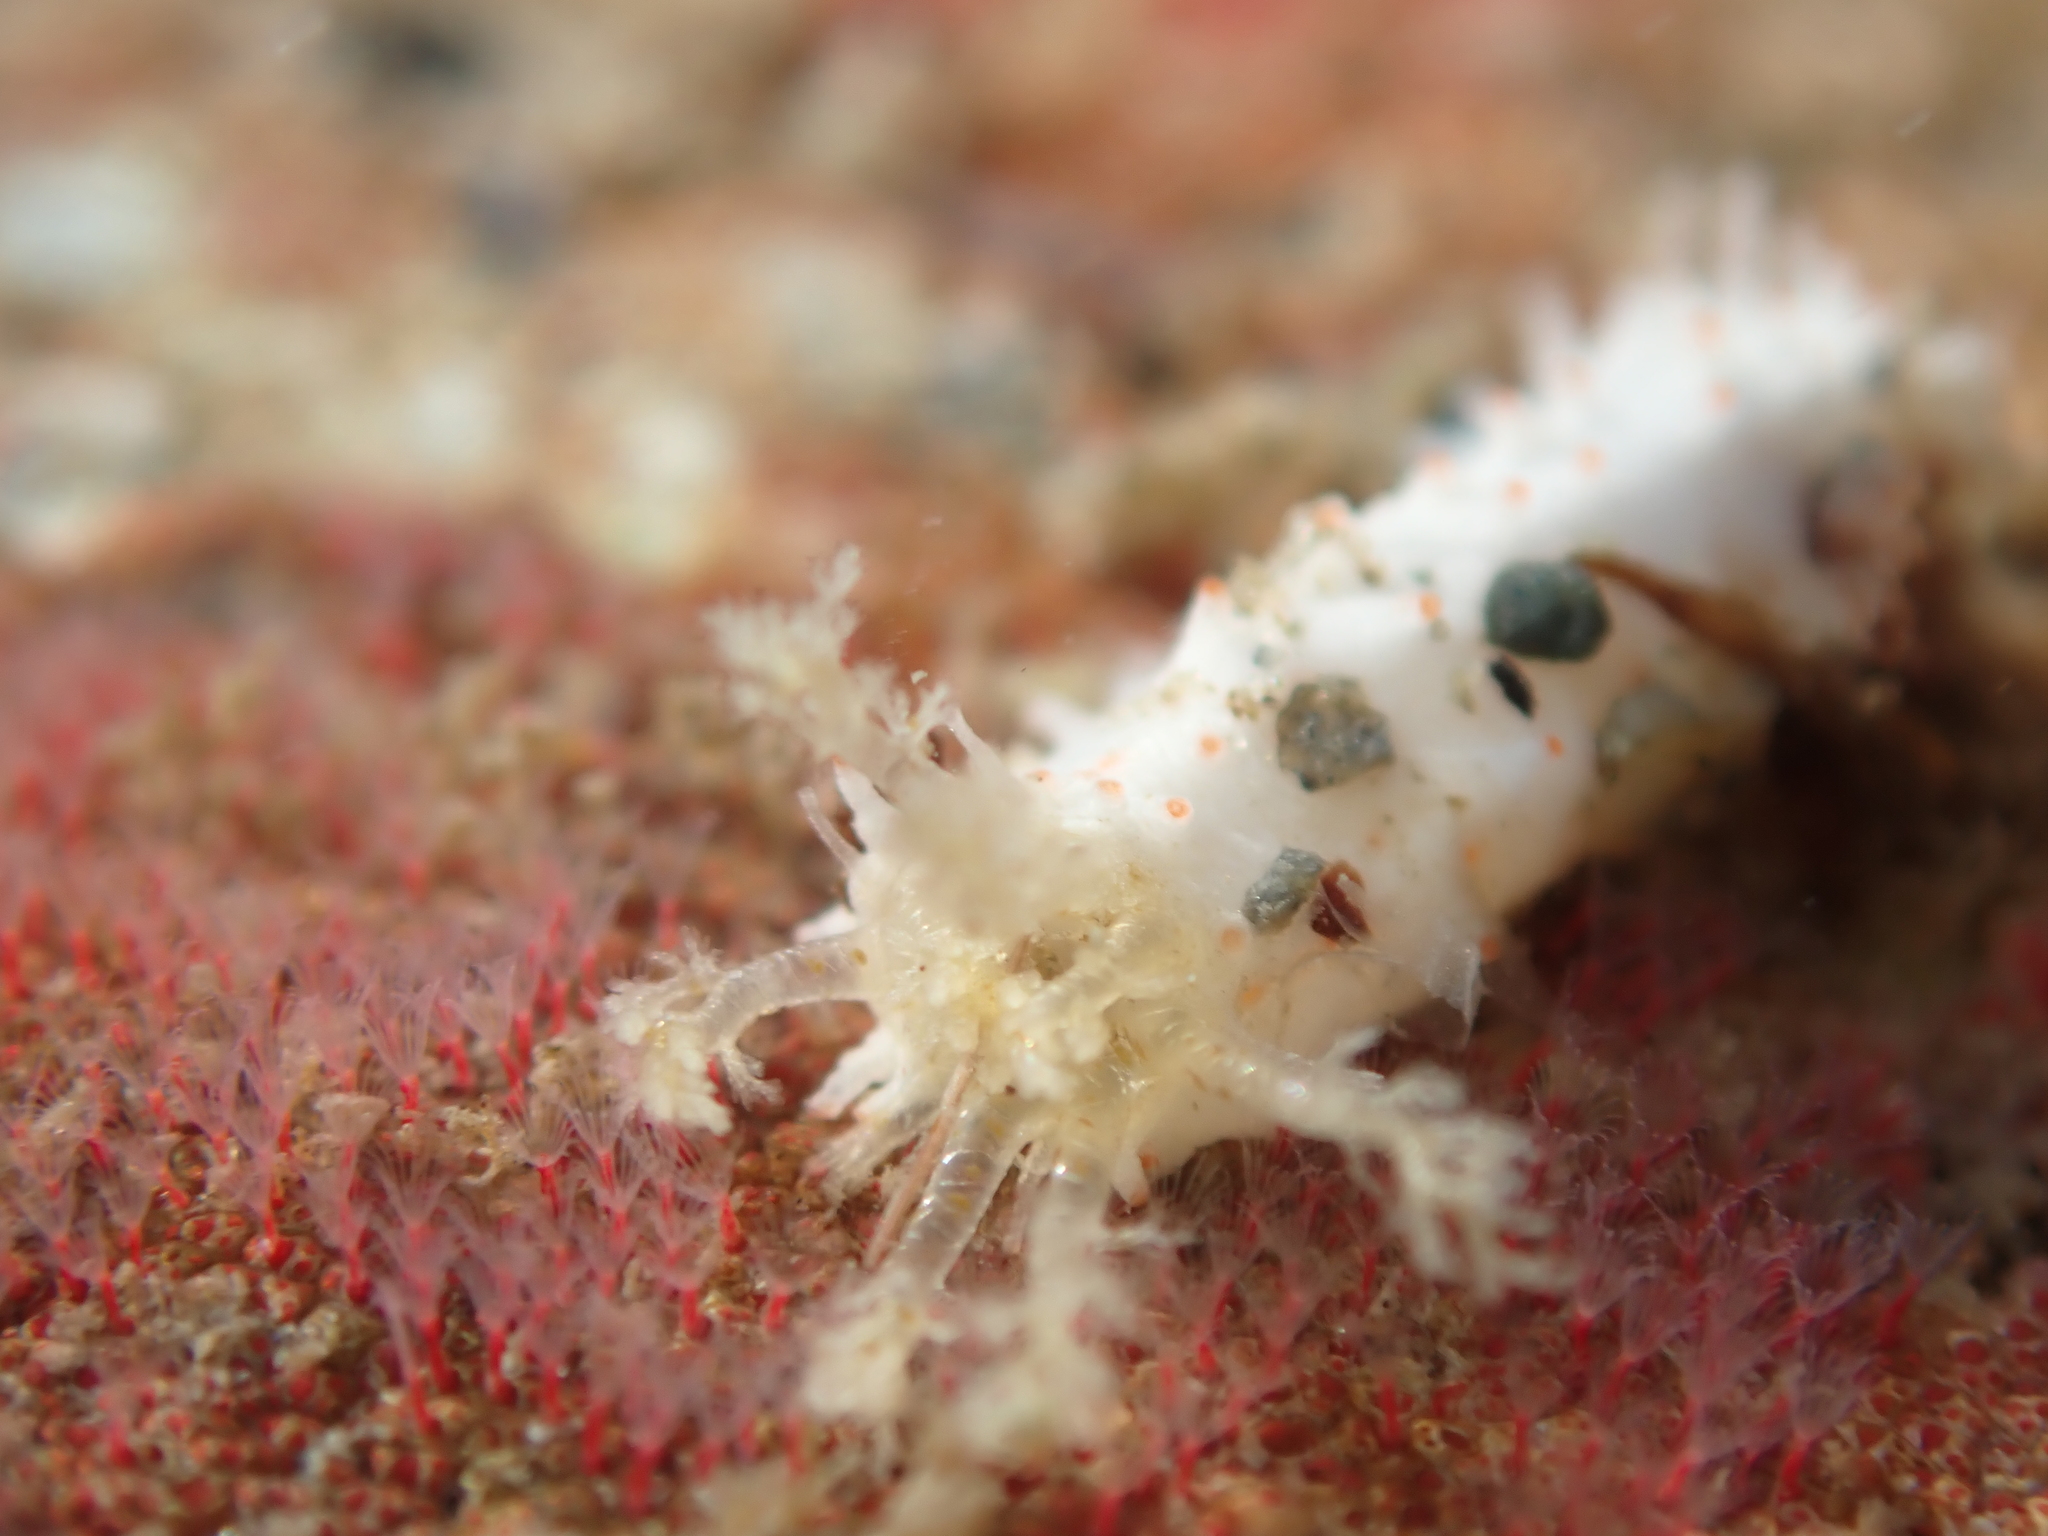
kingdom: Animalia
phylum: Echinodermata
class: Holothuroidea
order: Dendrochirotida
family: Cucumariidae
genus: Australocnus
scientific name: Australocnus calcareus
